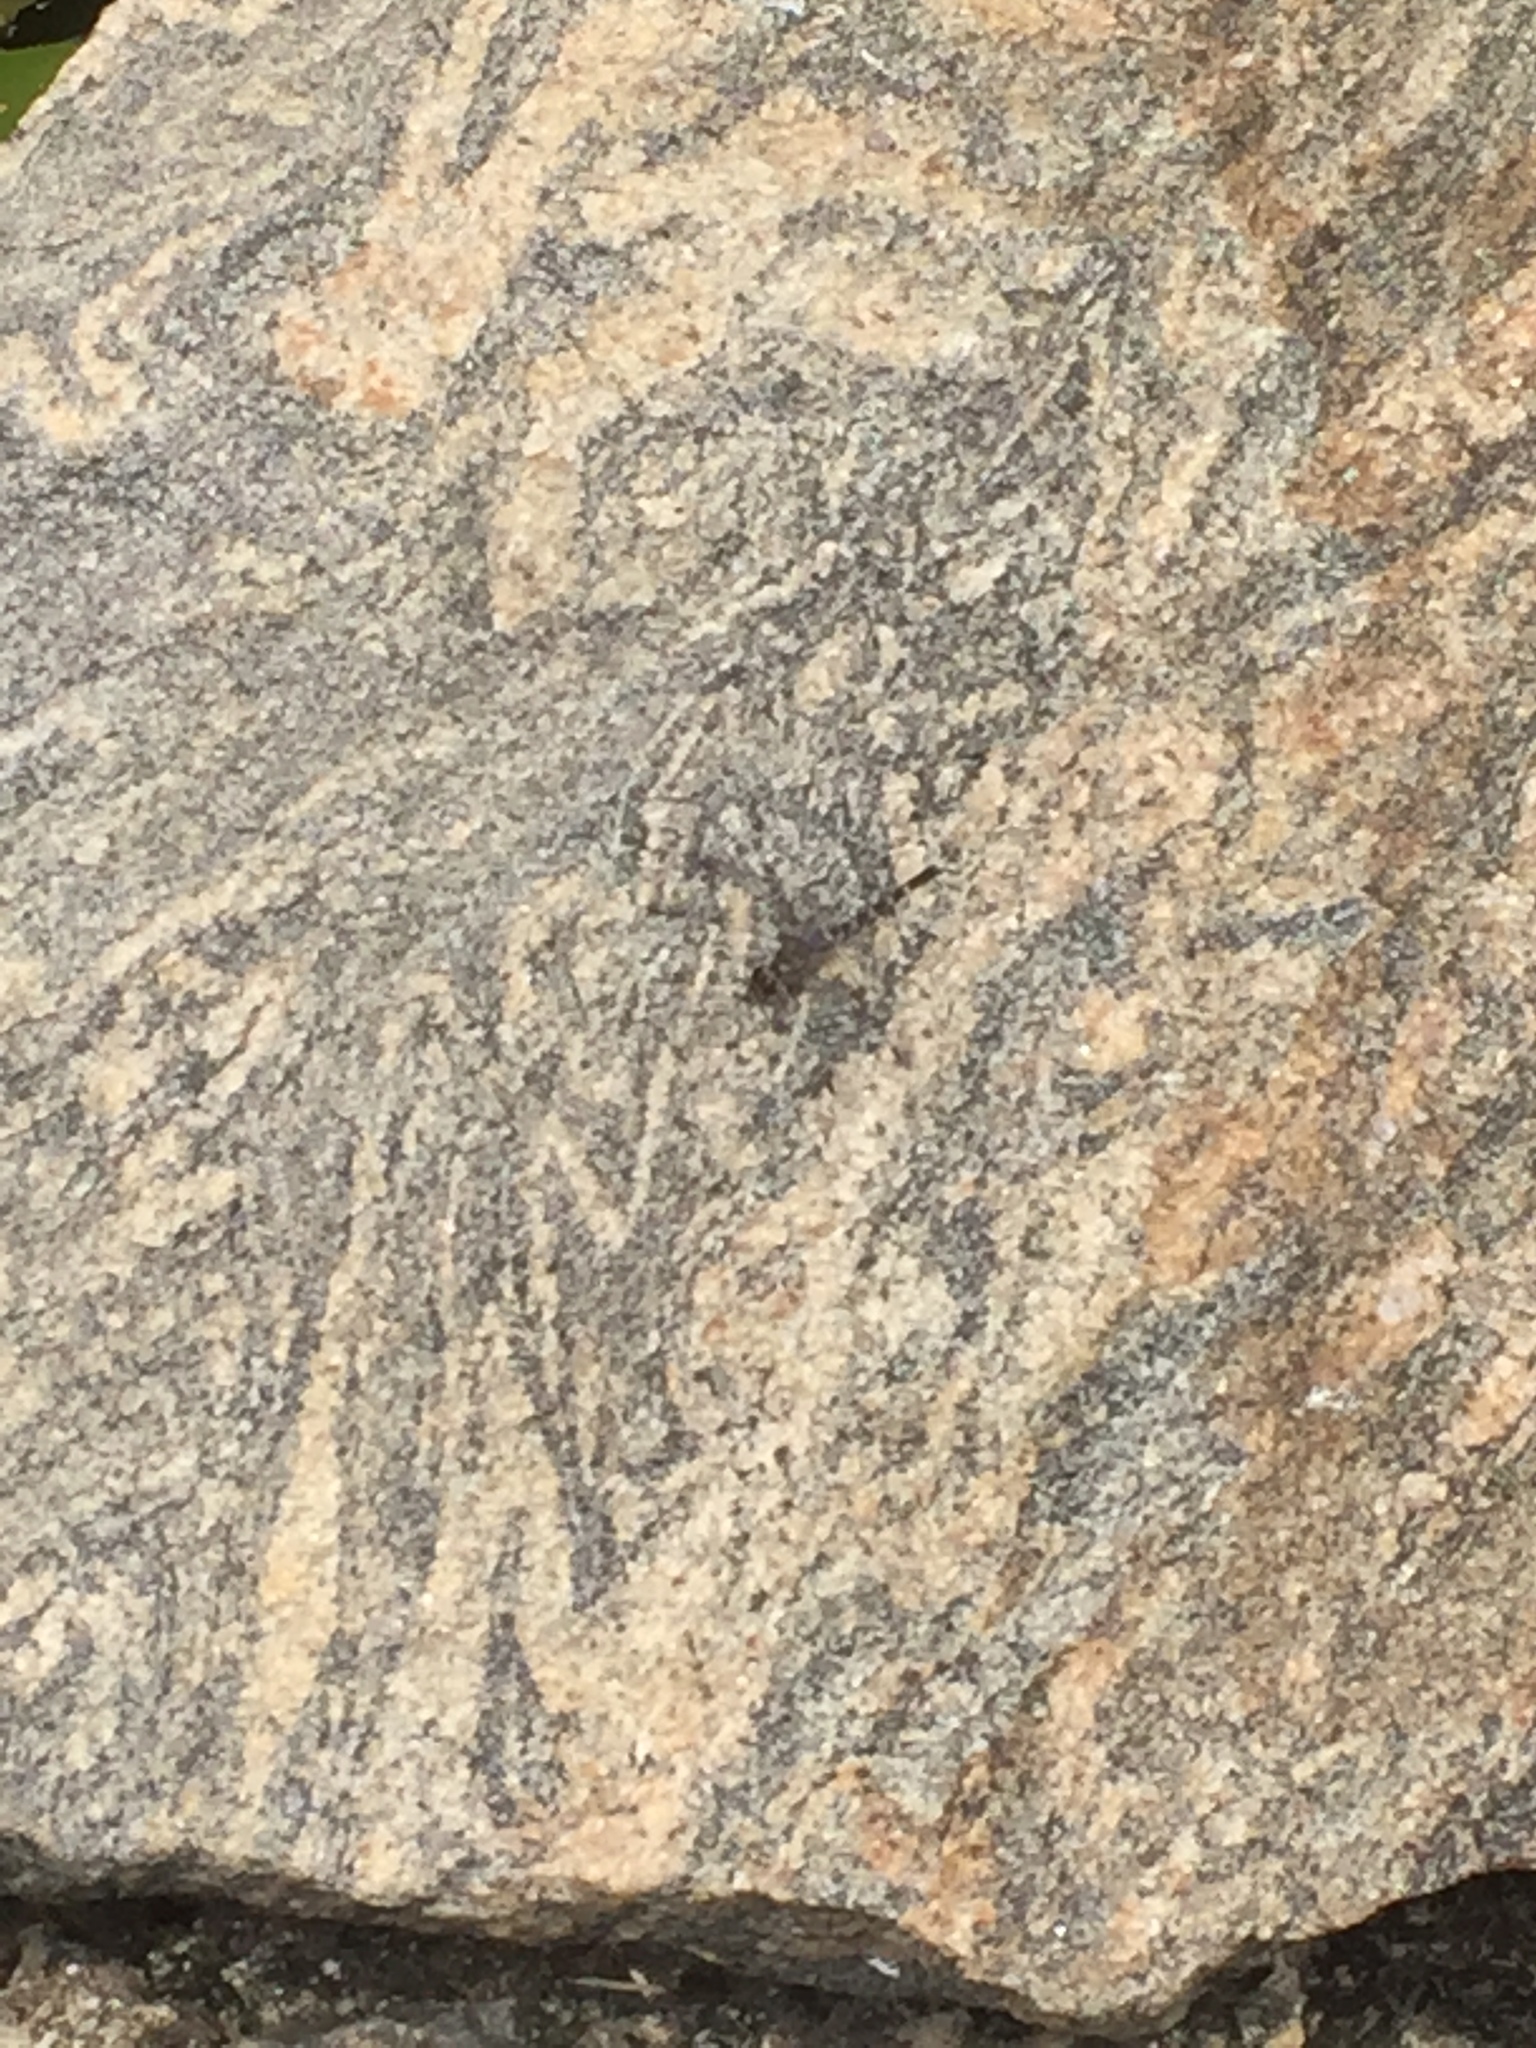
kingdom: Animalia
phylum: Arthropoda
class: Insecta
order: Odonata
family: Libellulidae
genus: Bradinopyga
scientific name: Bradinopyga geminata
